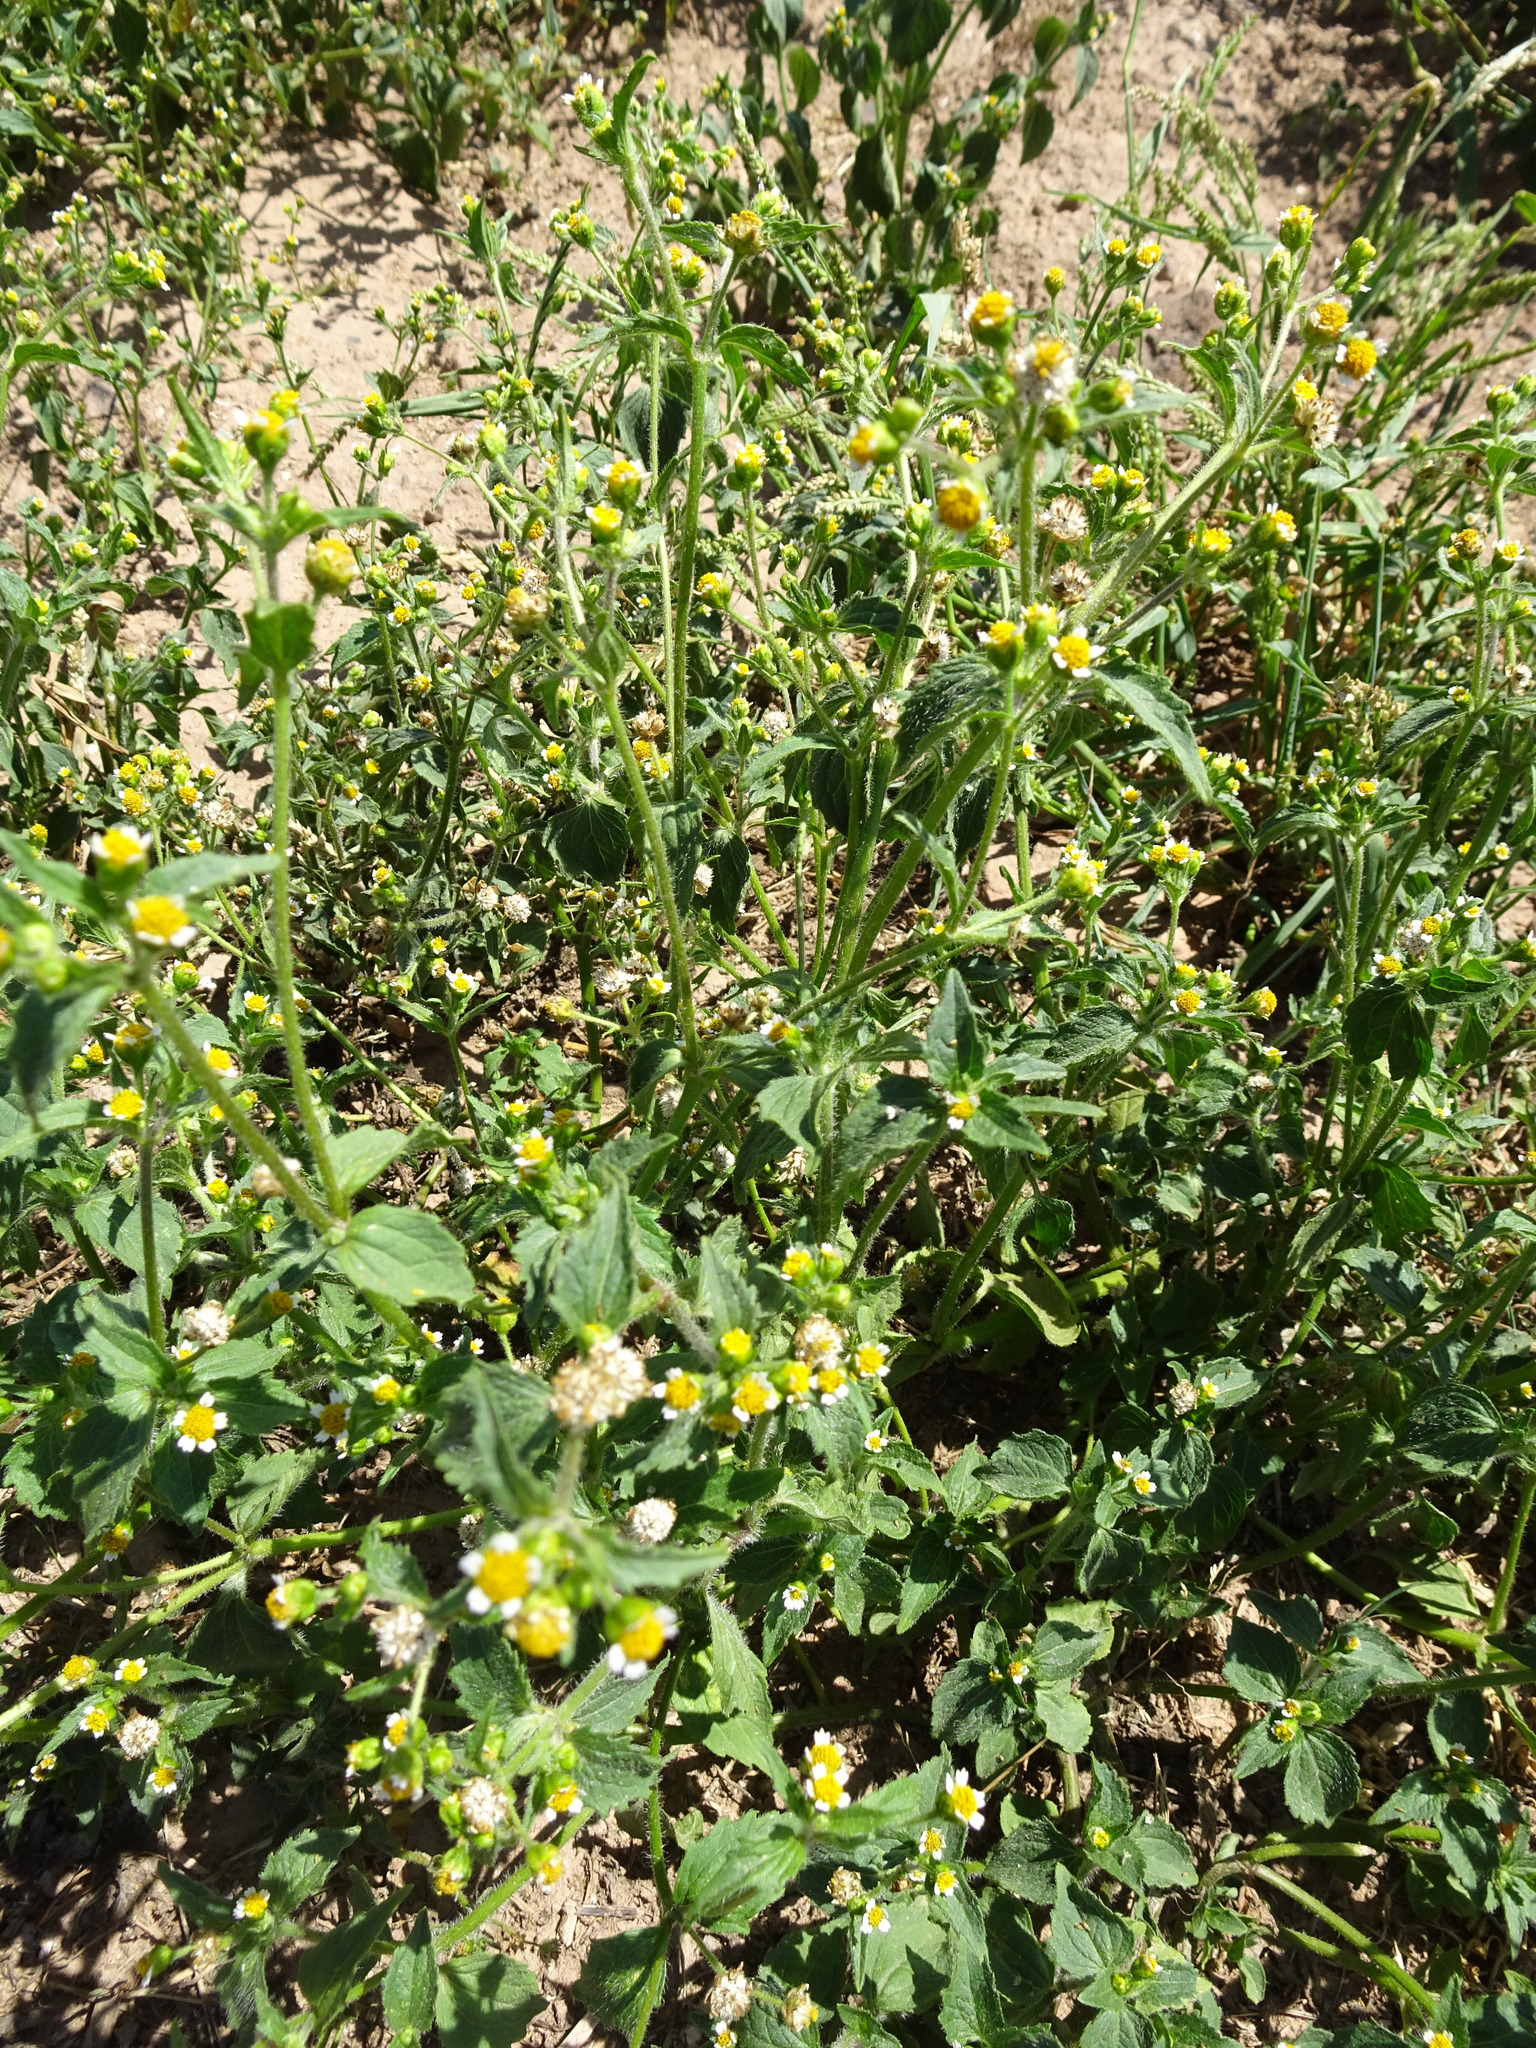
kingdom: Plantae
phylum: Tracheophyta
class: Magnoliopsida
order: Asterales
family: Asteraceae
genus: Galinsoga
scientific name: Galinsoga quadriradiata
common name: Shaggy soldier
